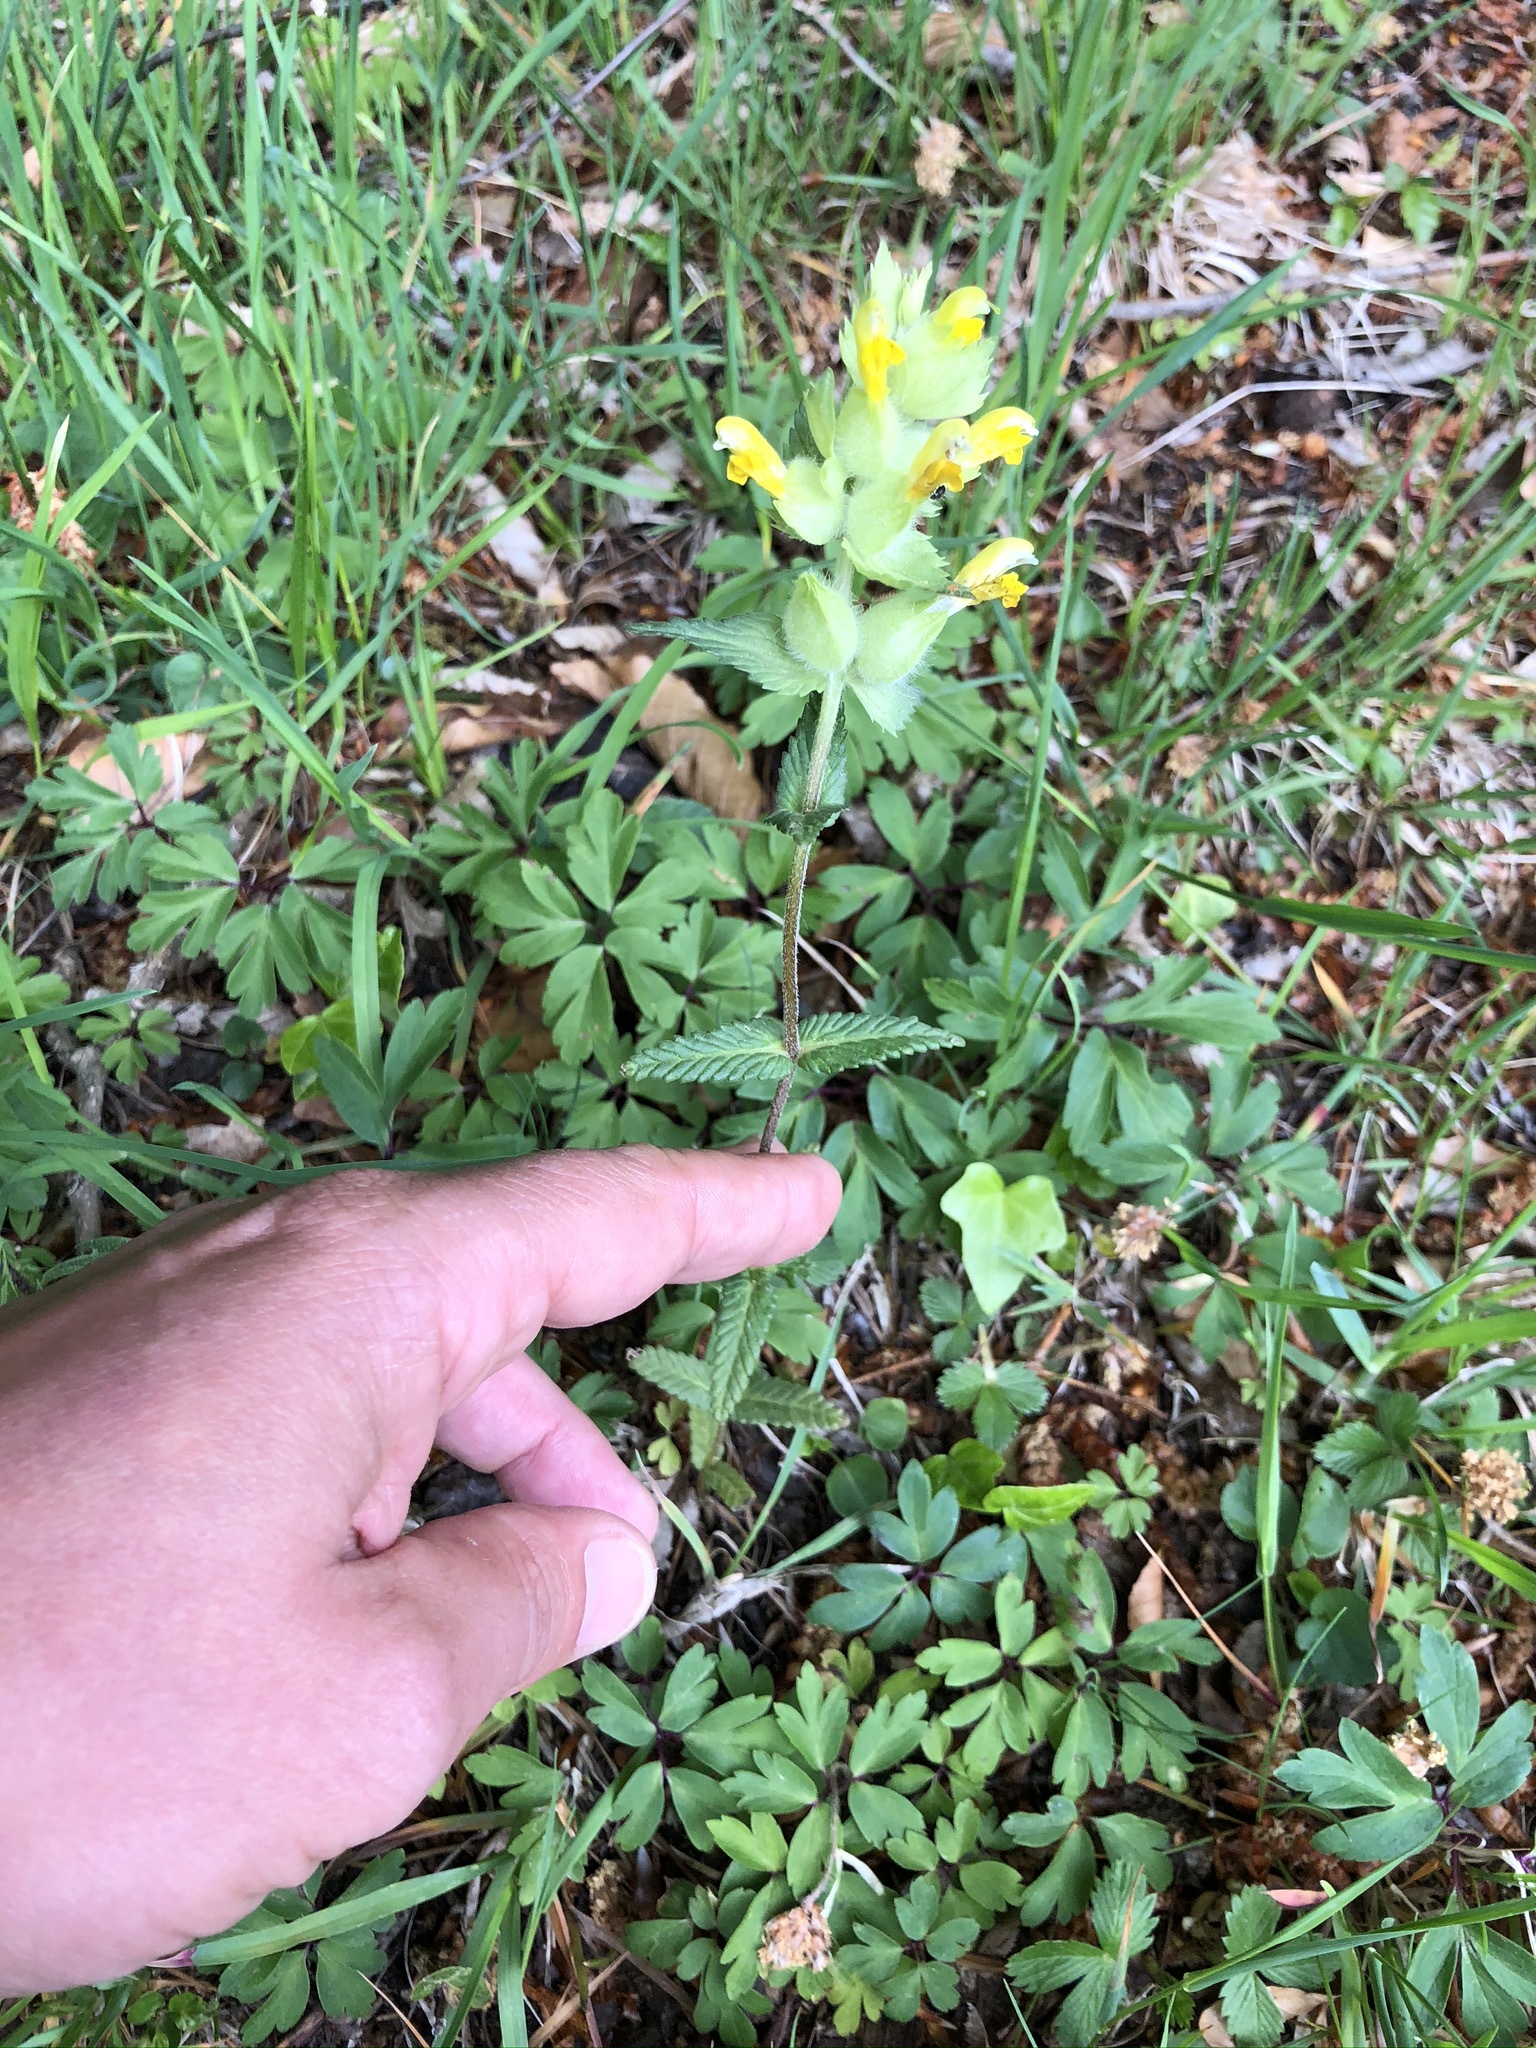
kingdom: Plantae
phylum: Tracheophyta
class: Magnoliopsida
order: Lamiales
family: Orobanchaceae
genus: Rhinanthus
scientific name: Rhinanthus alectorolophus
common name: Greater yellow-rattle
